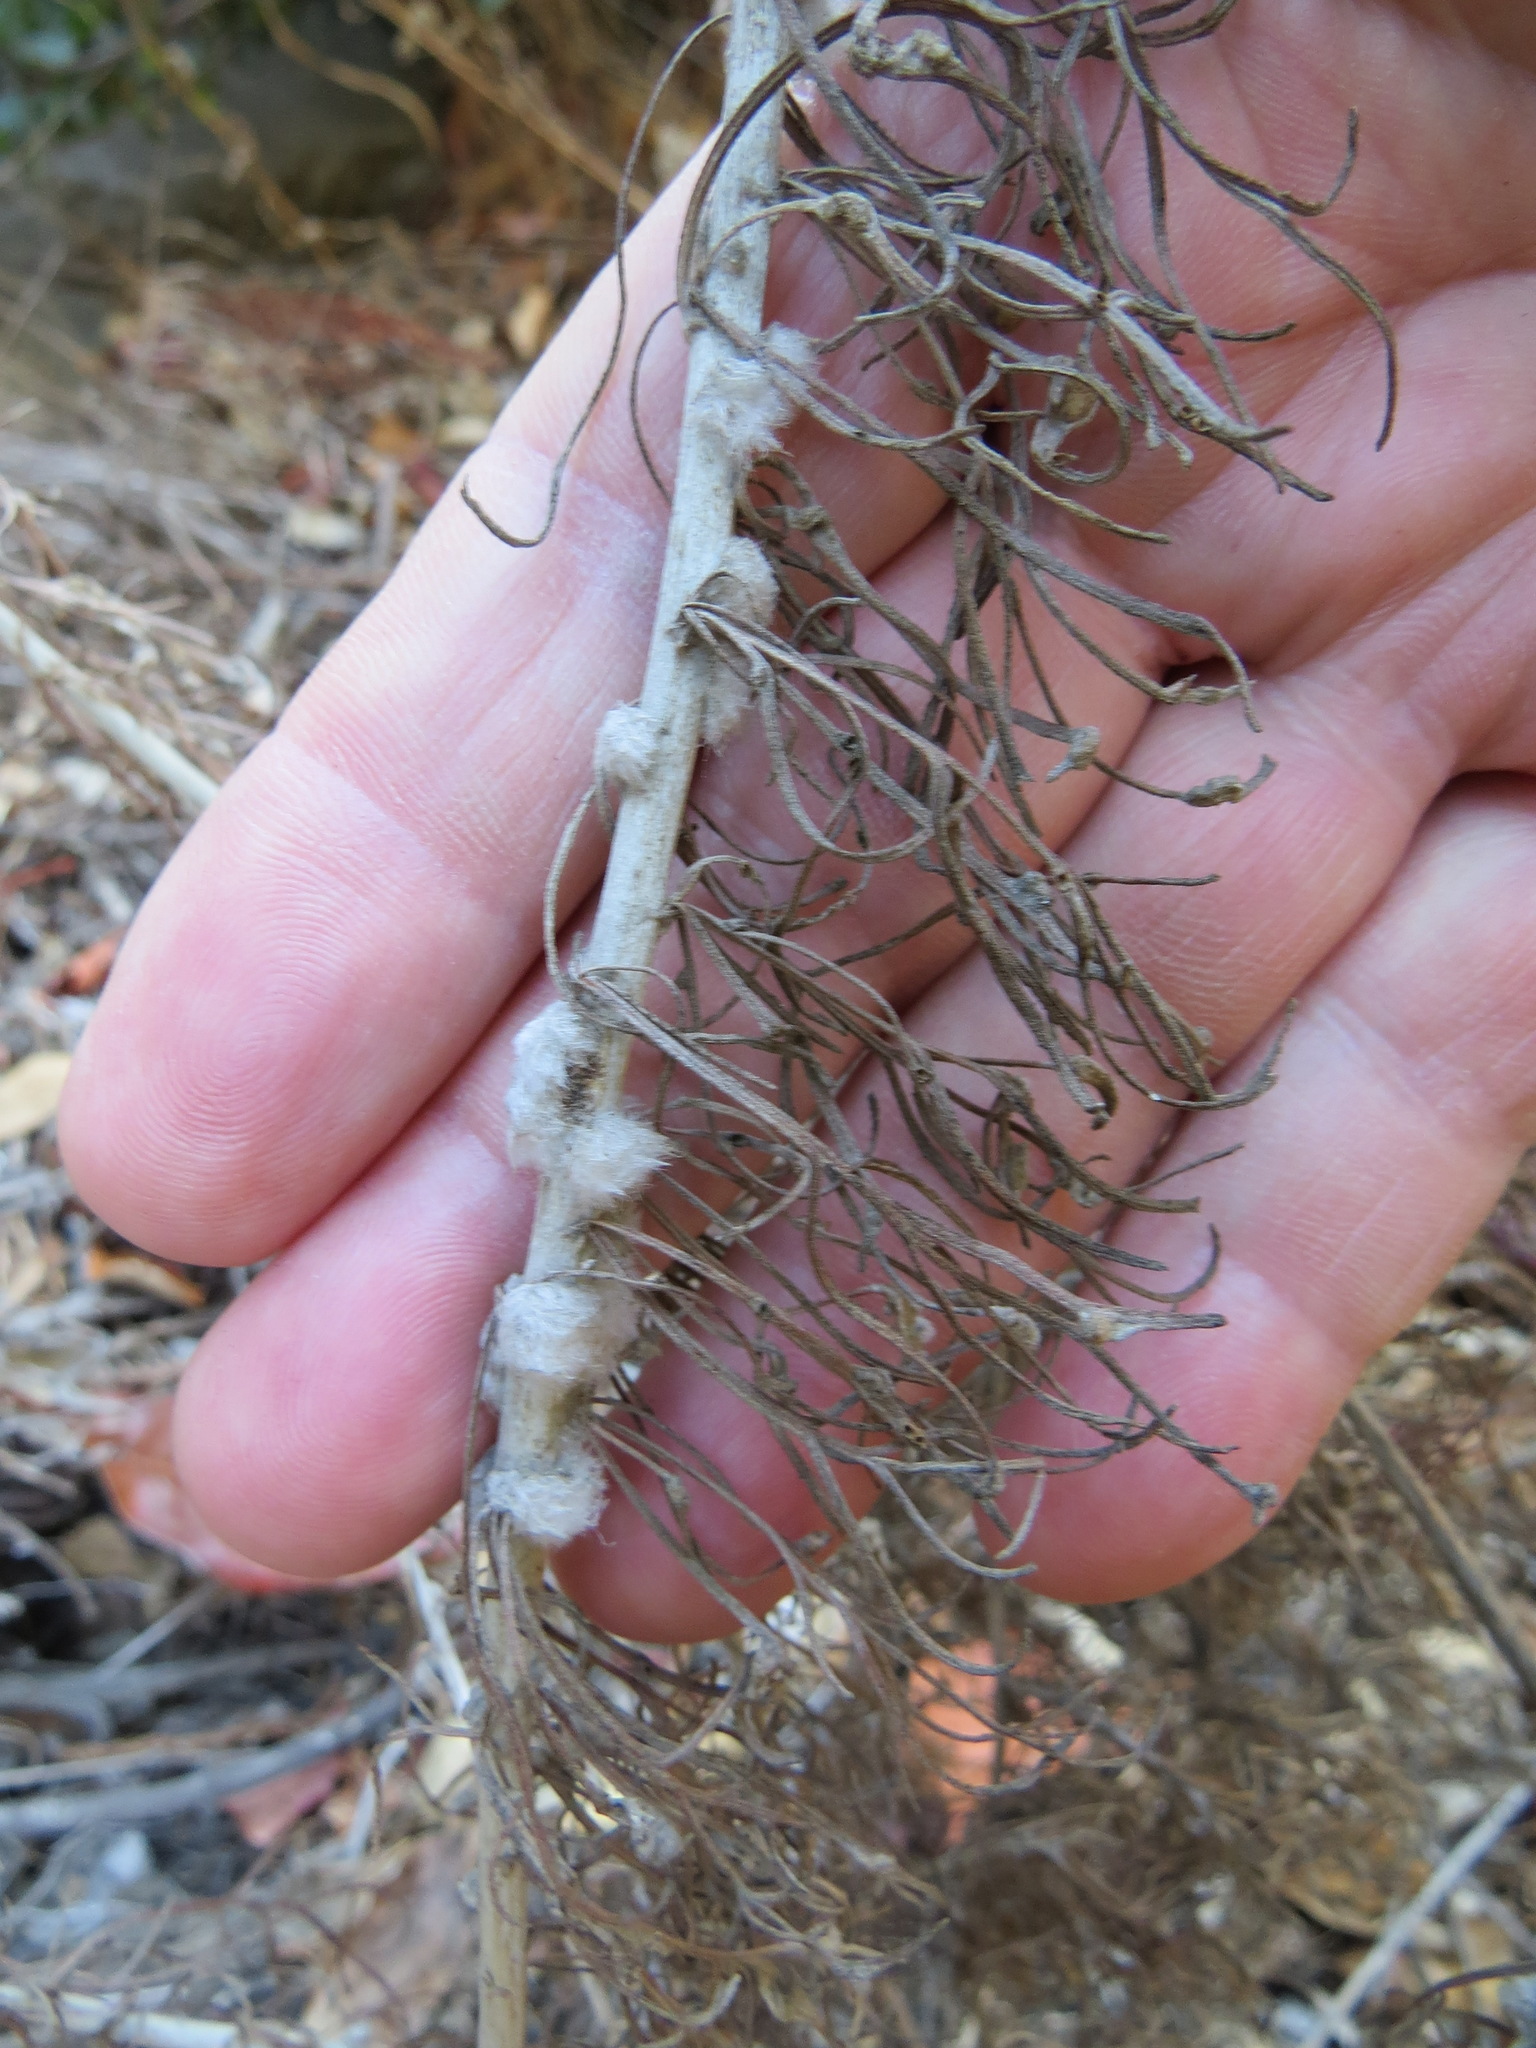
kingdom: Animalia
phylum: Arthropoda
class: Insecta
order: Diptera
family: Cecidomyiidae
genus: Rhopalomyia
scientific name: Rhopalomyia floccosa
